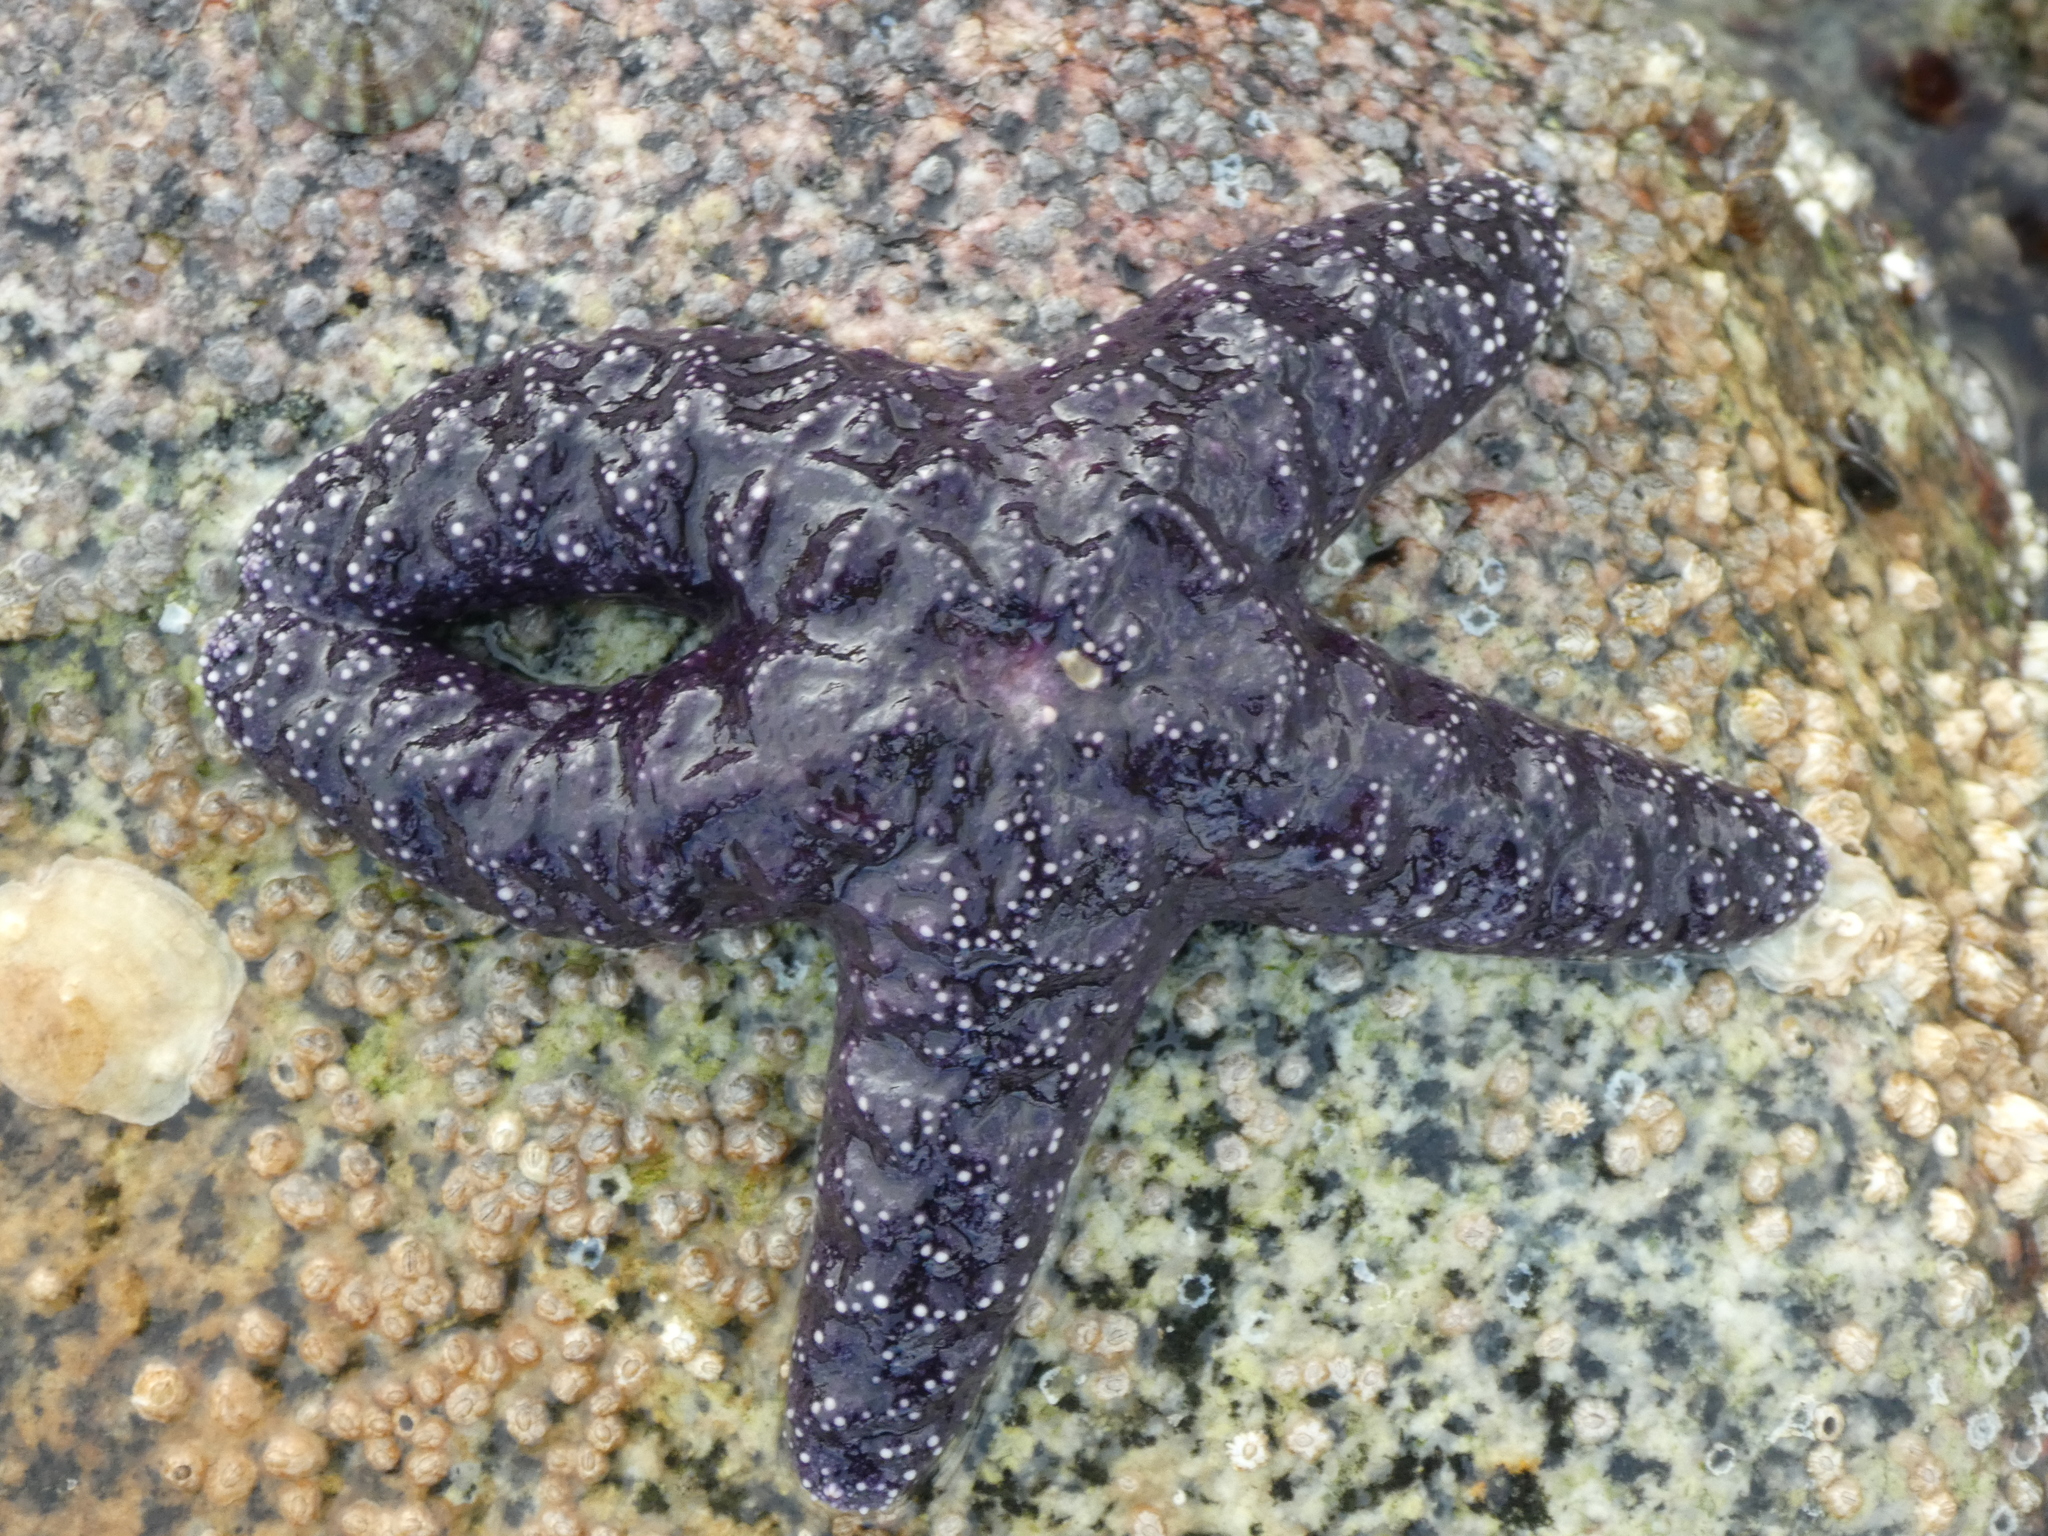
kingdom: Animalia
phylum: Echinodermata
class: Asteroidea
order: Forcipulatida
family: Asteriidae
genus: Pisaster
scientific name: Pisaster ochraceus
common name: Ochre stars
